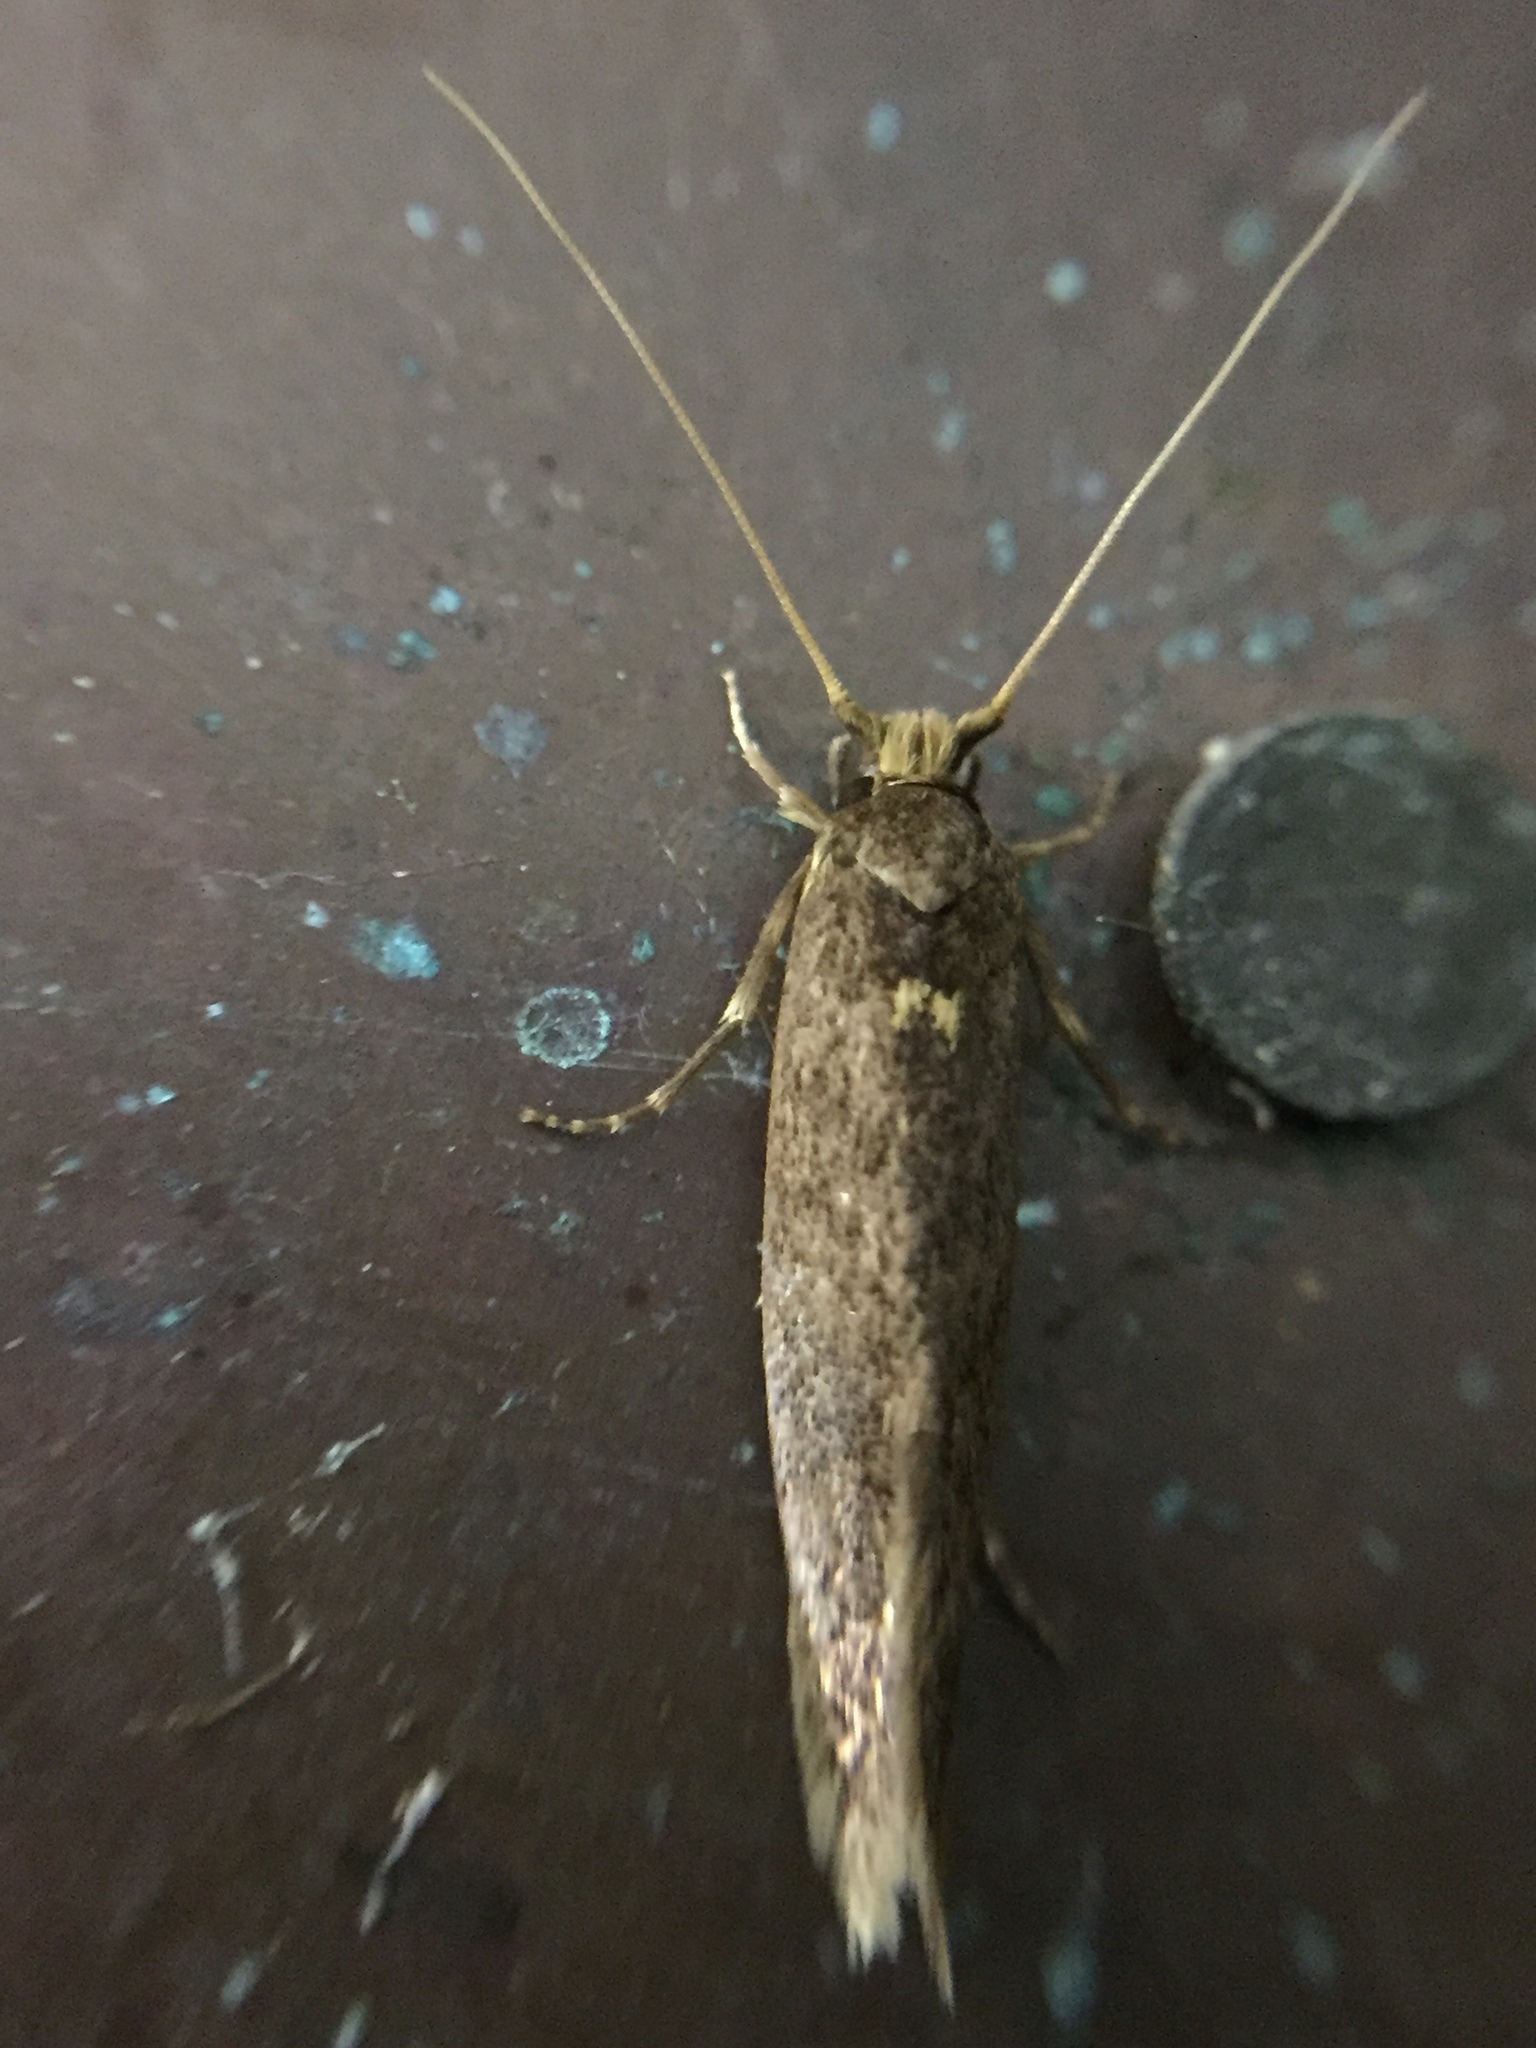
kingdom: Animalia
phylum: Arthropoda
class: Insecta
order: Lepidoptera
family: Tineidae
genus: Opogona
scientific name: Opogona omoscopa
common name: Moth
